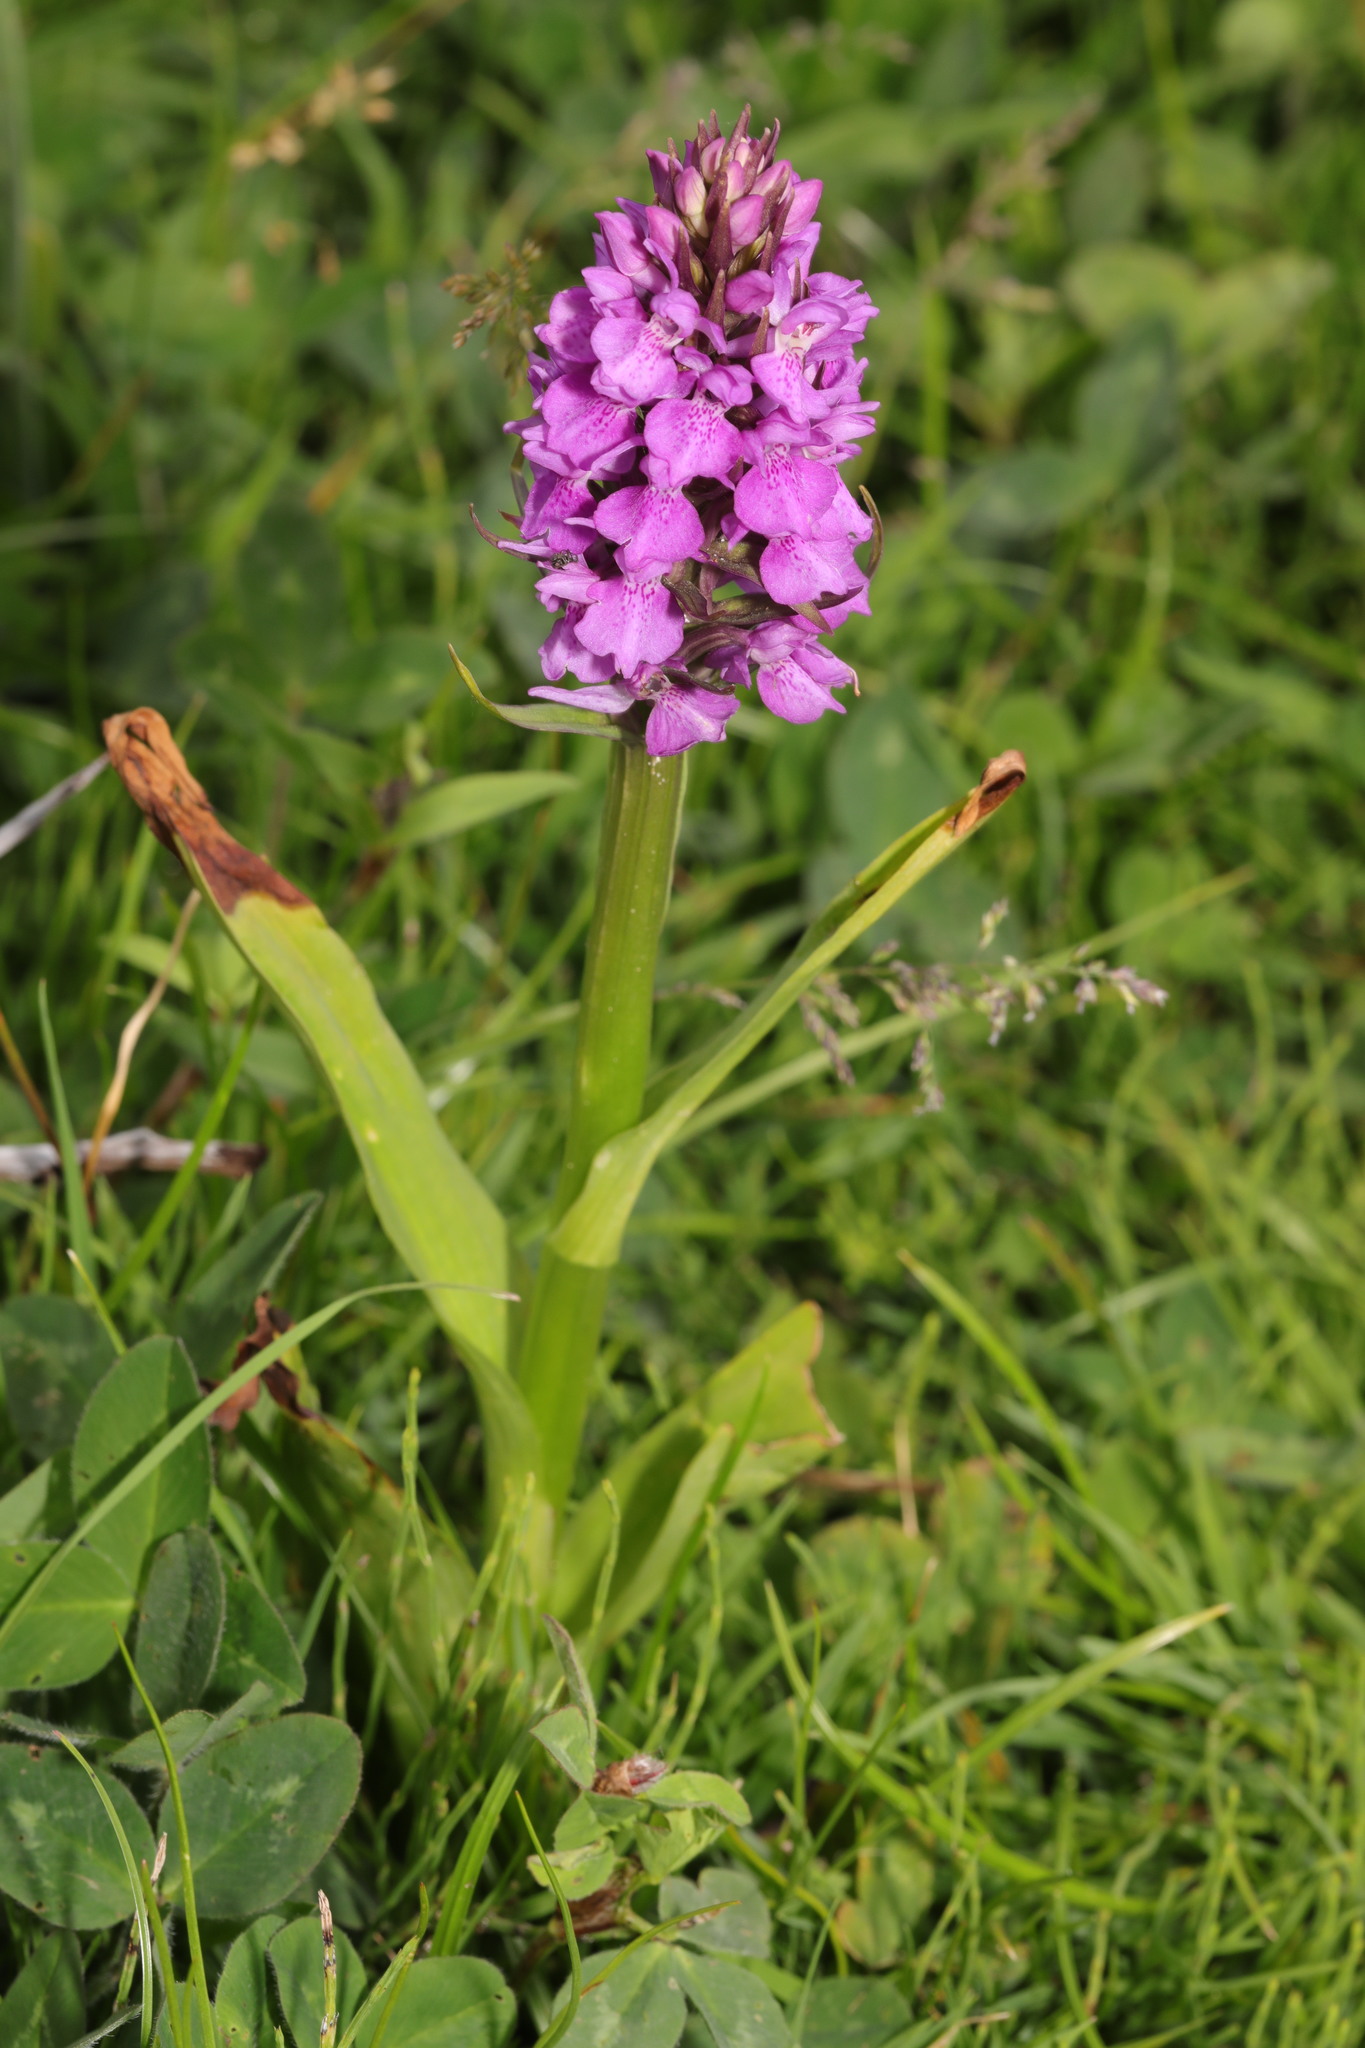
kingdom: Plantae
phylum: Tracheophyta
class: Liliopsida
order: Asparagales
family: Orchidaceae
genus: Dactylorhiza
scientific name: Dactylorhiza majalis
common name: Marsh orchid
